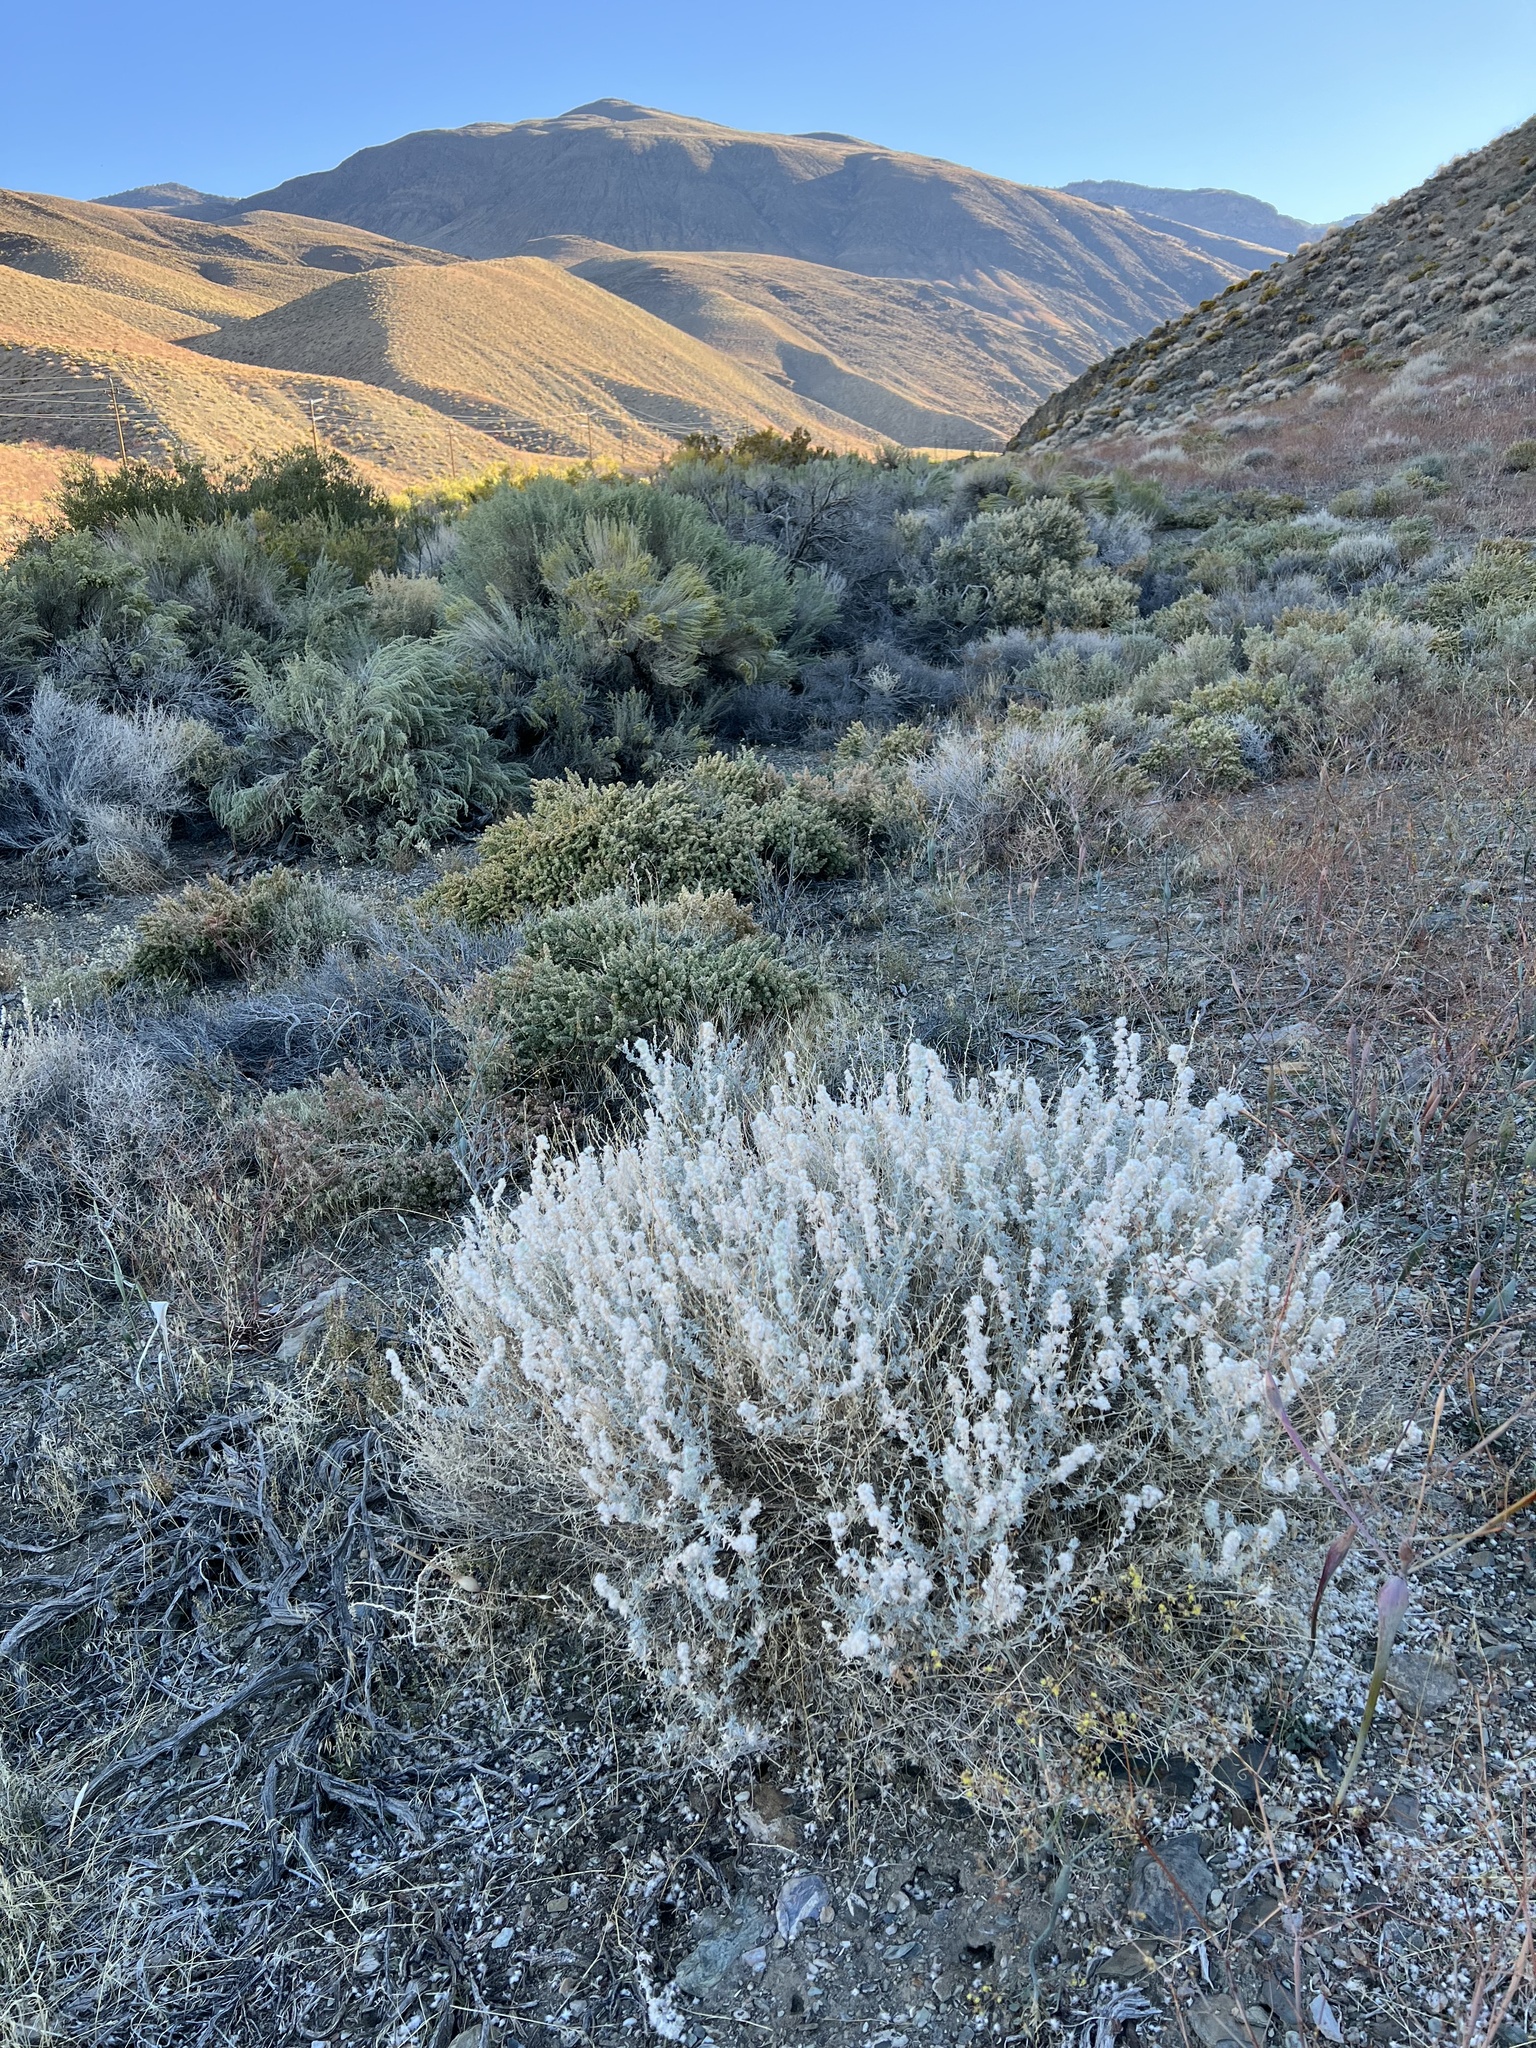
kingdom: Plantae
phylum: Tracheophyta
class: Magnoliopsida
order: Caryophyllales
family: Amaranthaceae
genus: Krascheninnikovia
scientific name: Krascheninnikovia lanata
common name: Winterfat
